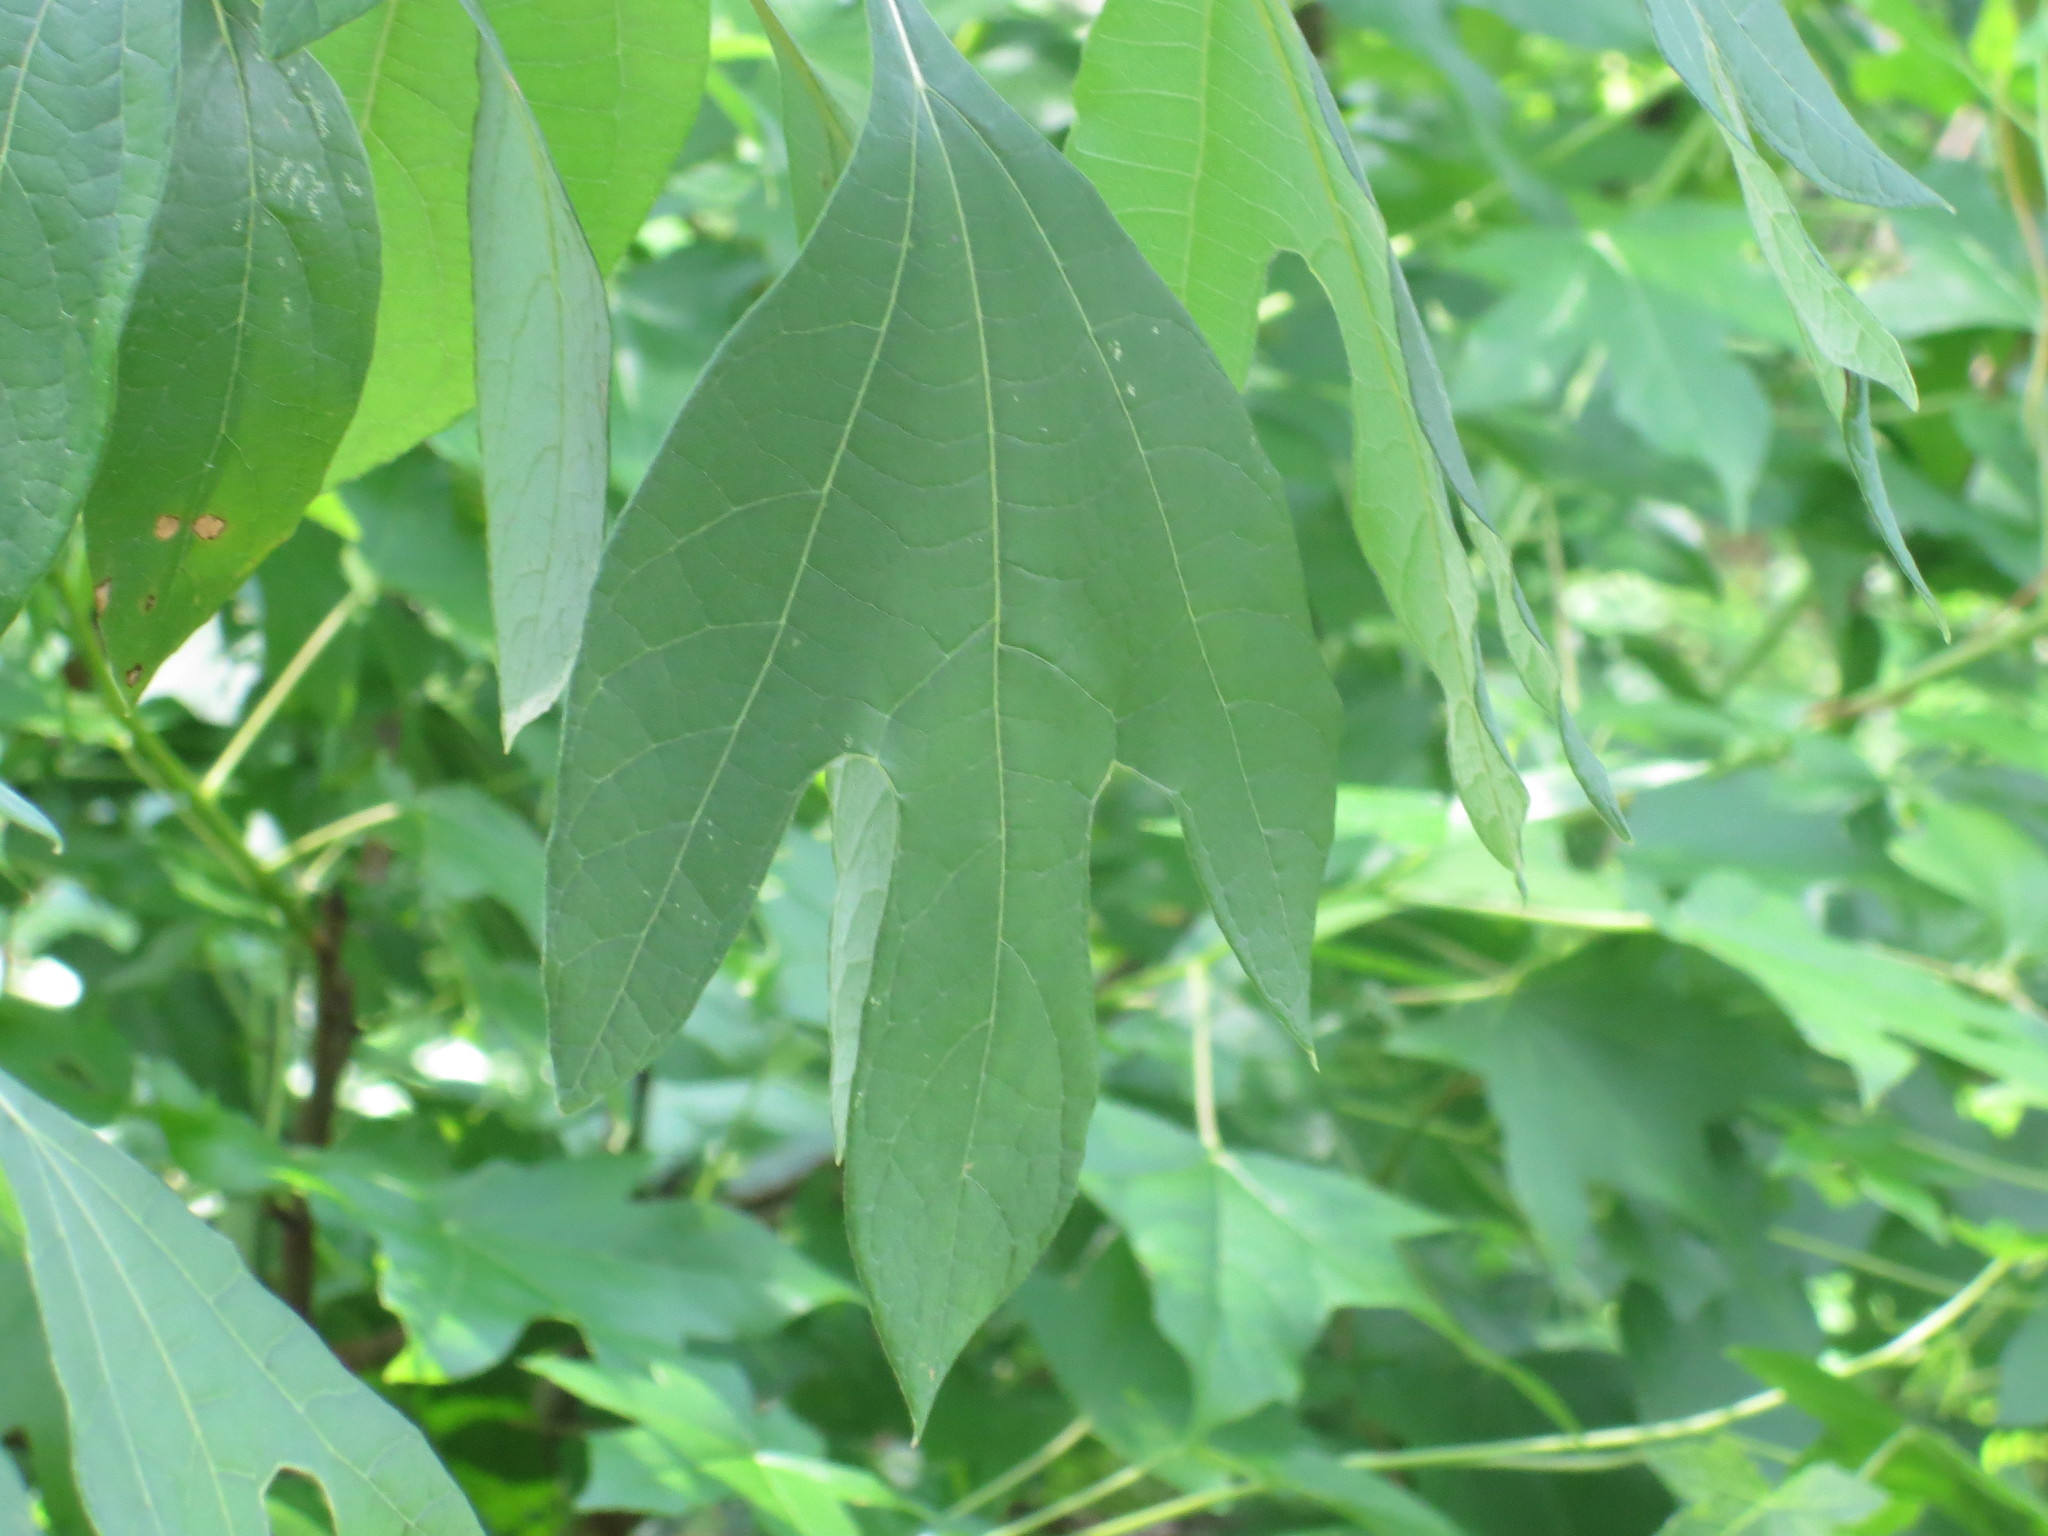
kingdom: Plantae
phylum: Tracheophyta
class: Magnoliopsida
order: Laurales
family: Lauraceae
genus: Sassafras
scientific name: Sassafras albidum
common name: Sassafras
